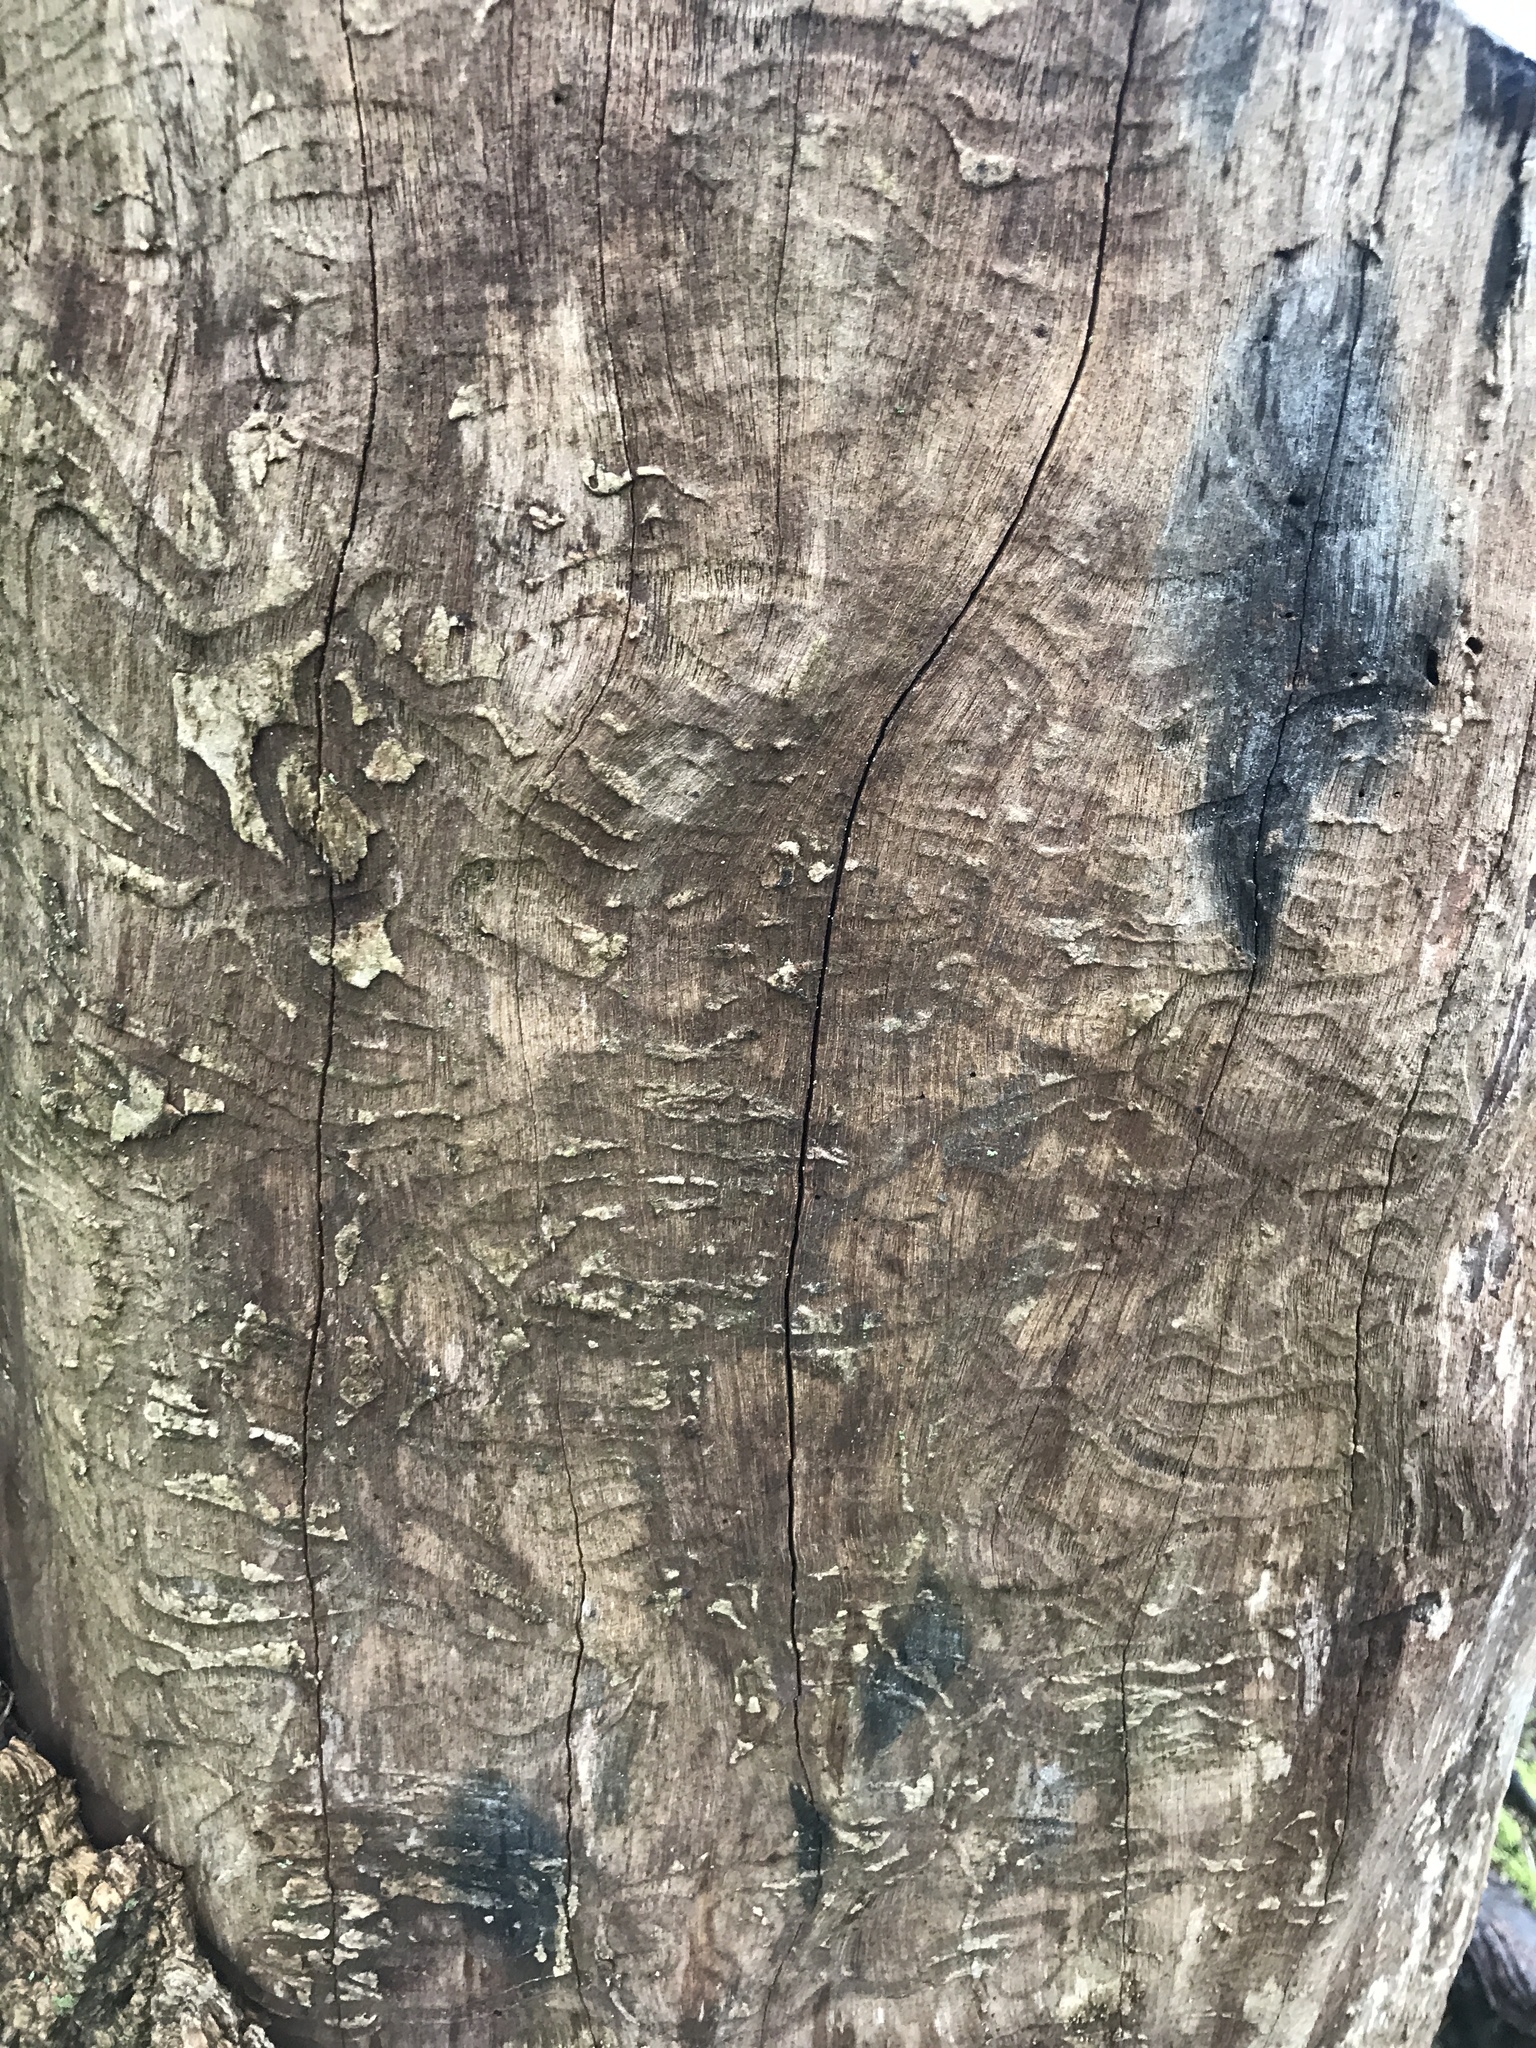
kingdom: Animalia
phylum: Arthropoda
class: Insecta
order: Coleoptera
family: Buprestidae
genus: Agrilus
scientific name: Agrilus planipennis
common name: Emerald ash borer
